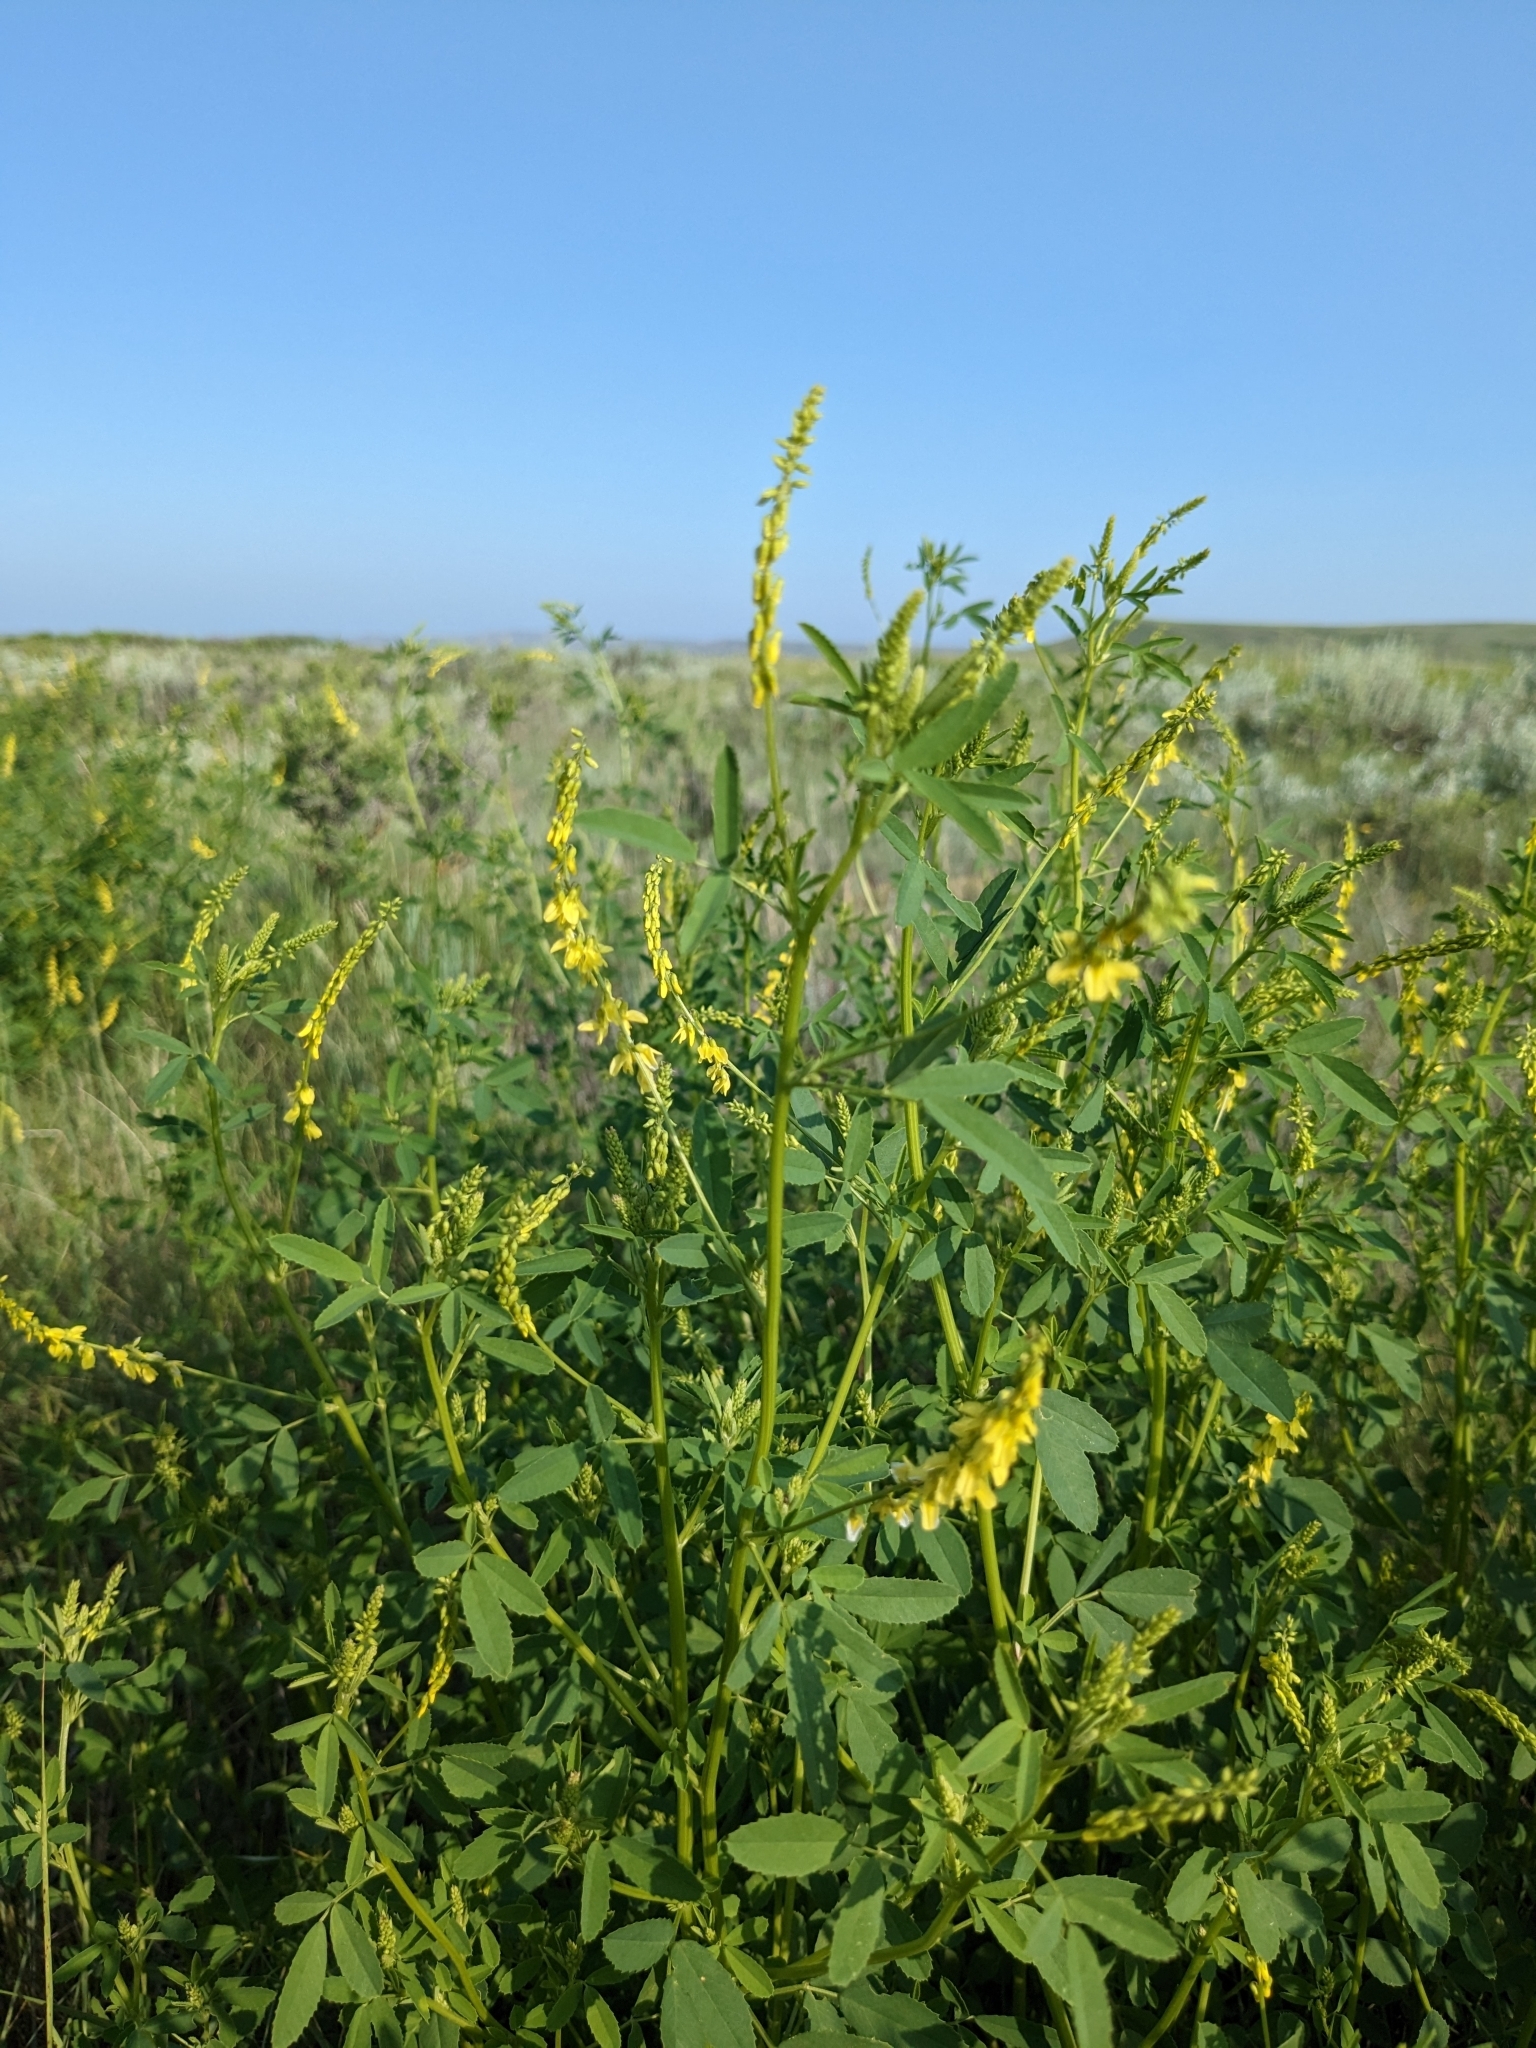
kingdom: Plantae
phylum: Tracheophyta
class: Magnoliopsida
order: Fabales
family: Fabaceae
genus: Melilotus
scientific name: Melilotus officinalis
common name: Sweetclover
